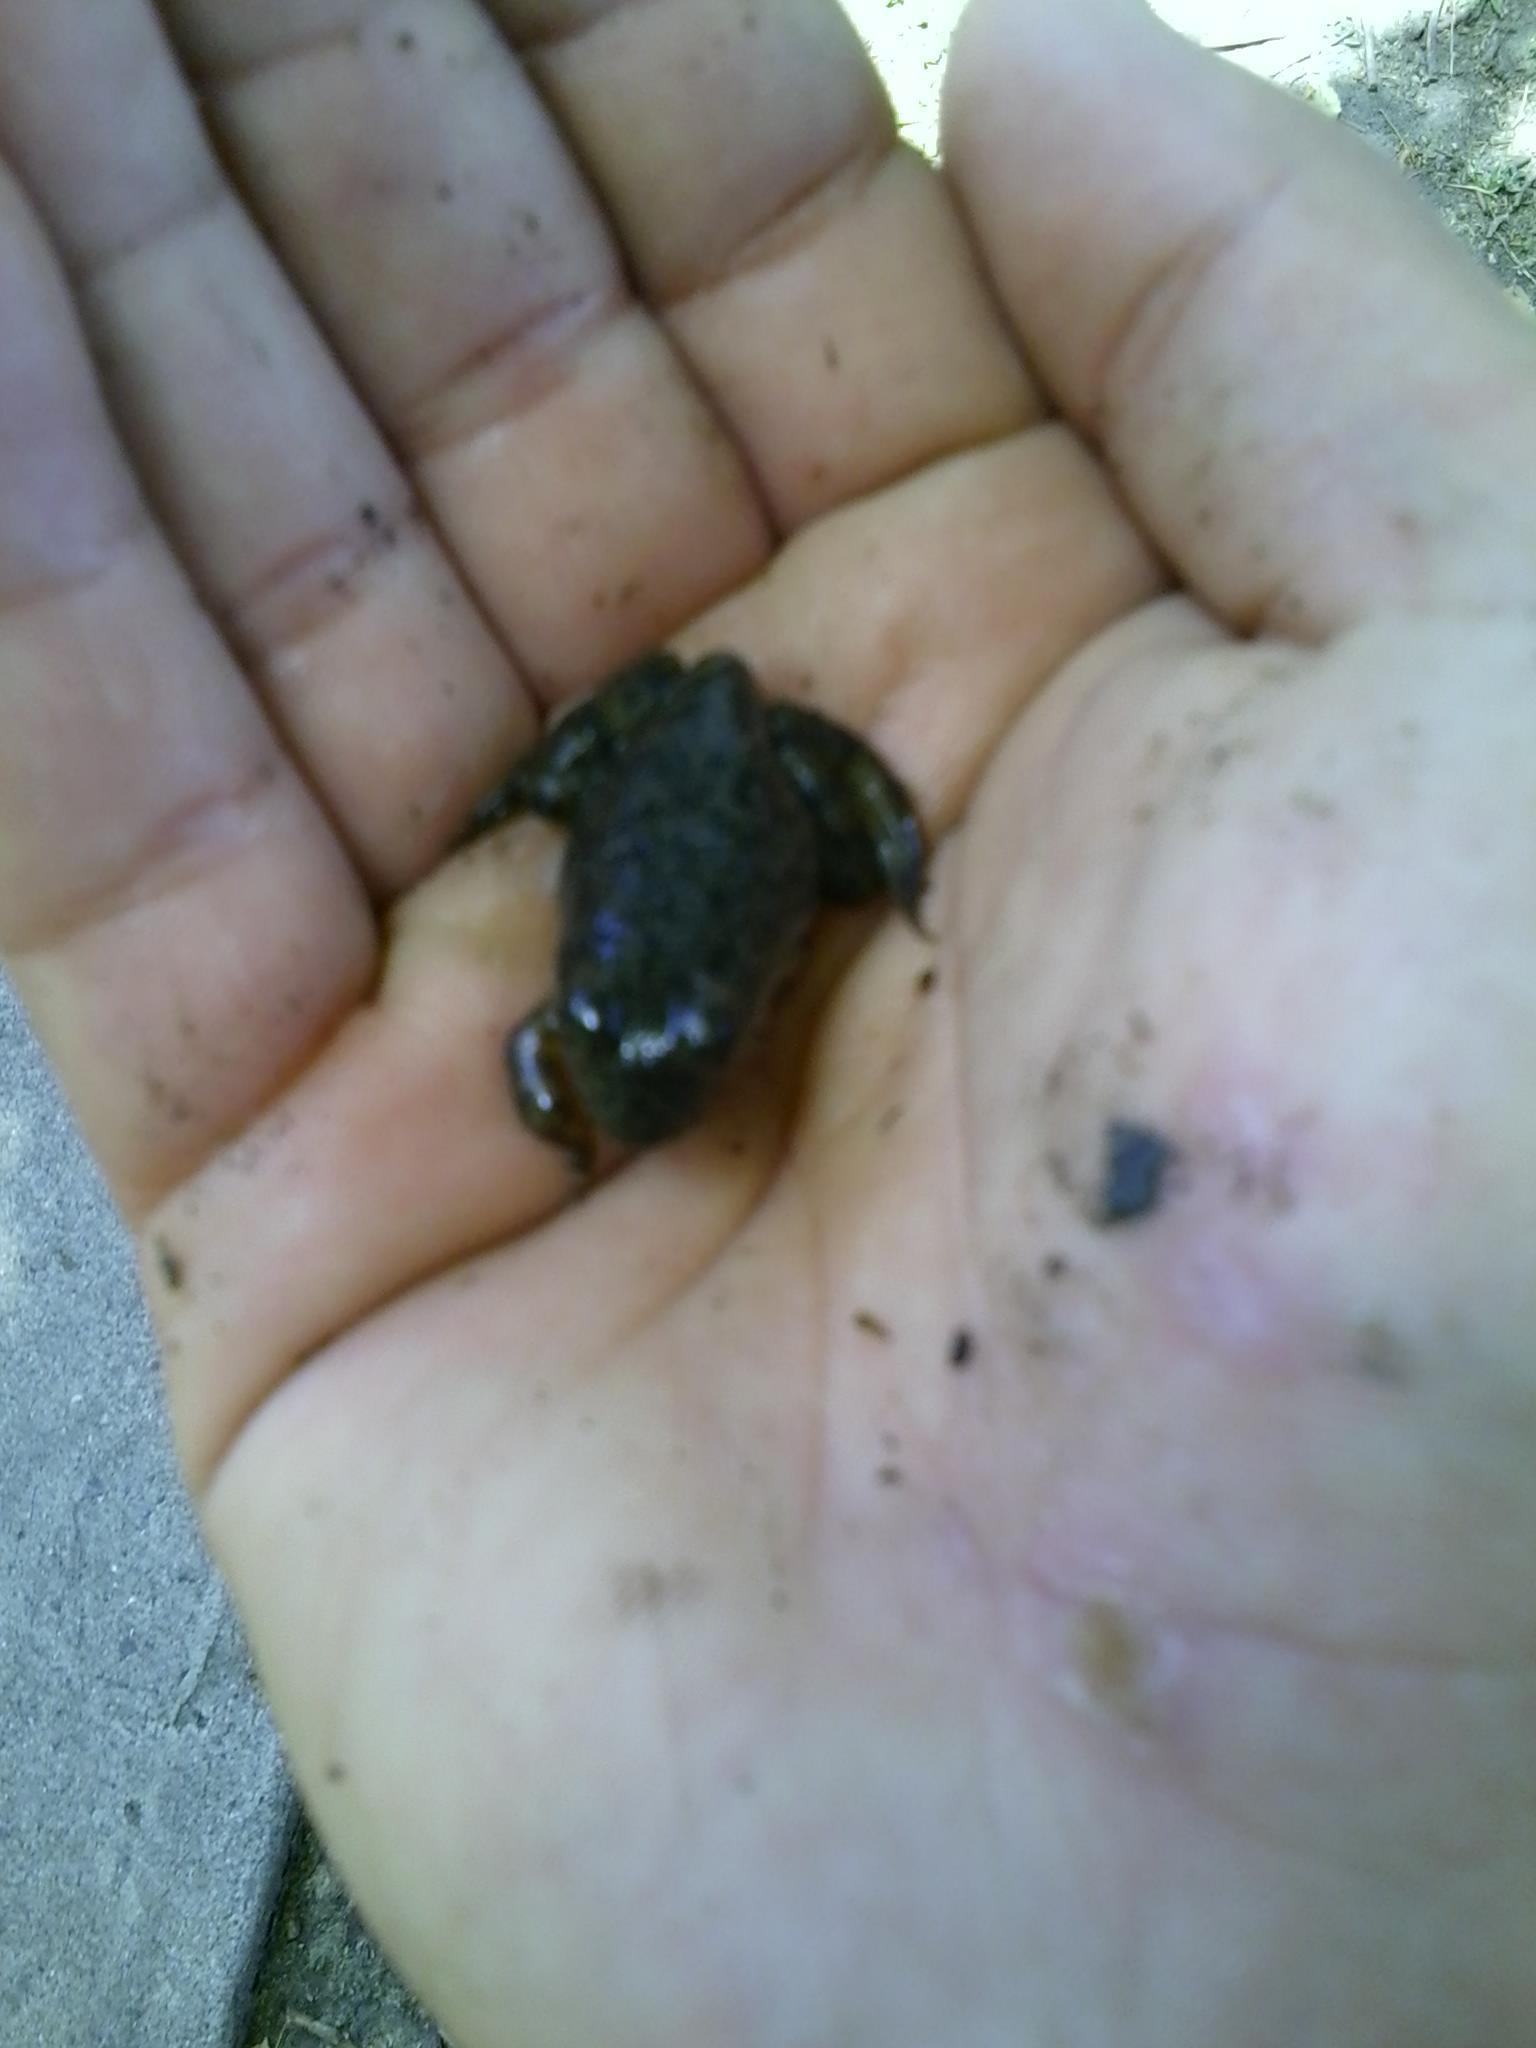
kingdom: Animalia
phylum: Chordata
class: Amphibia
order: Anura
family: Ranidae
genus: Lithobates
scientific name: Lithobates catesbeianus
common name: American bullfrog
